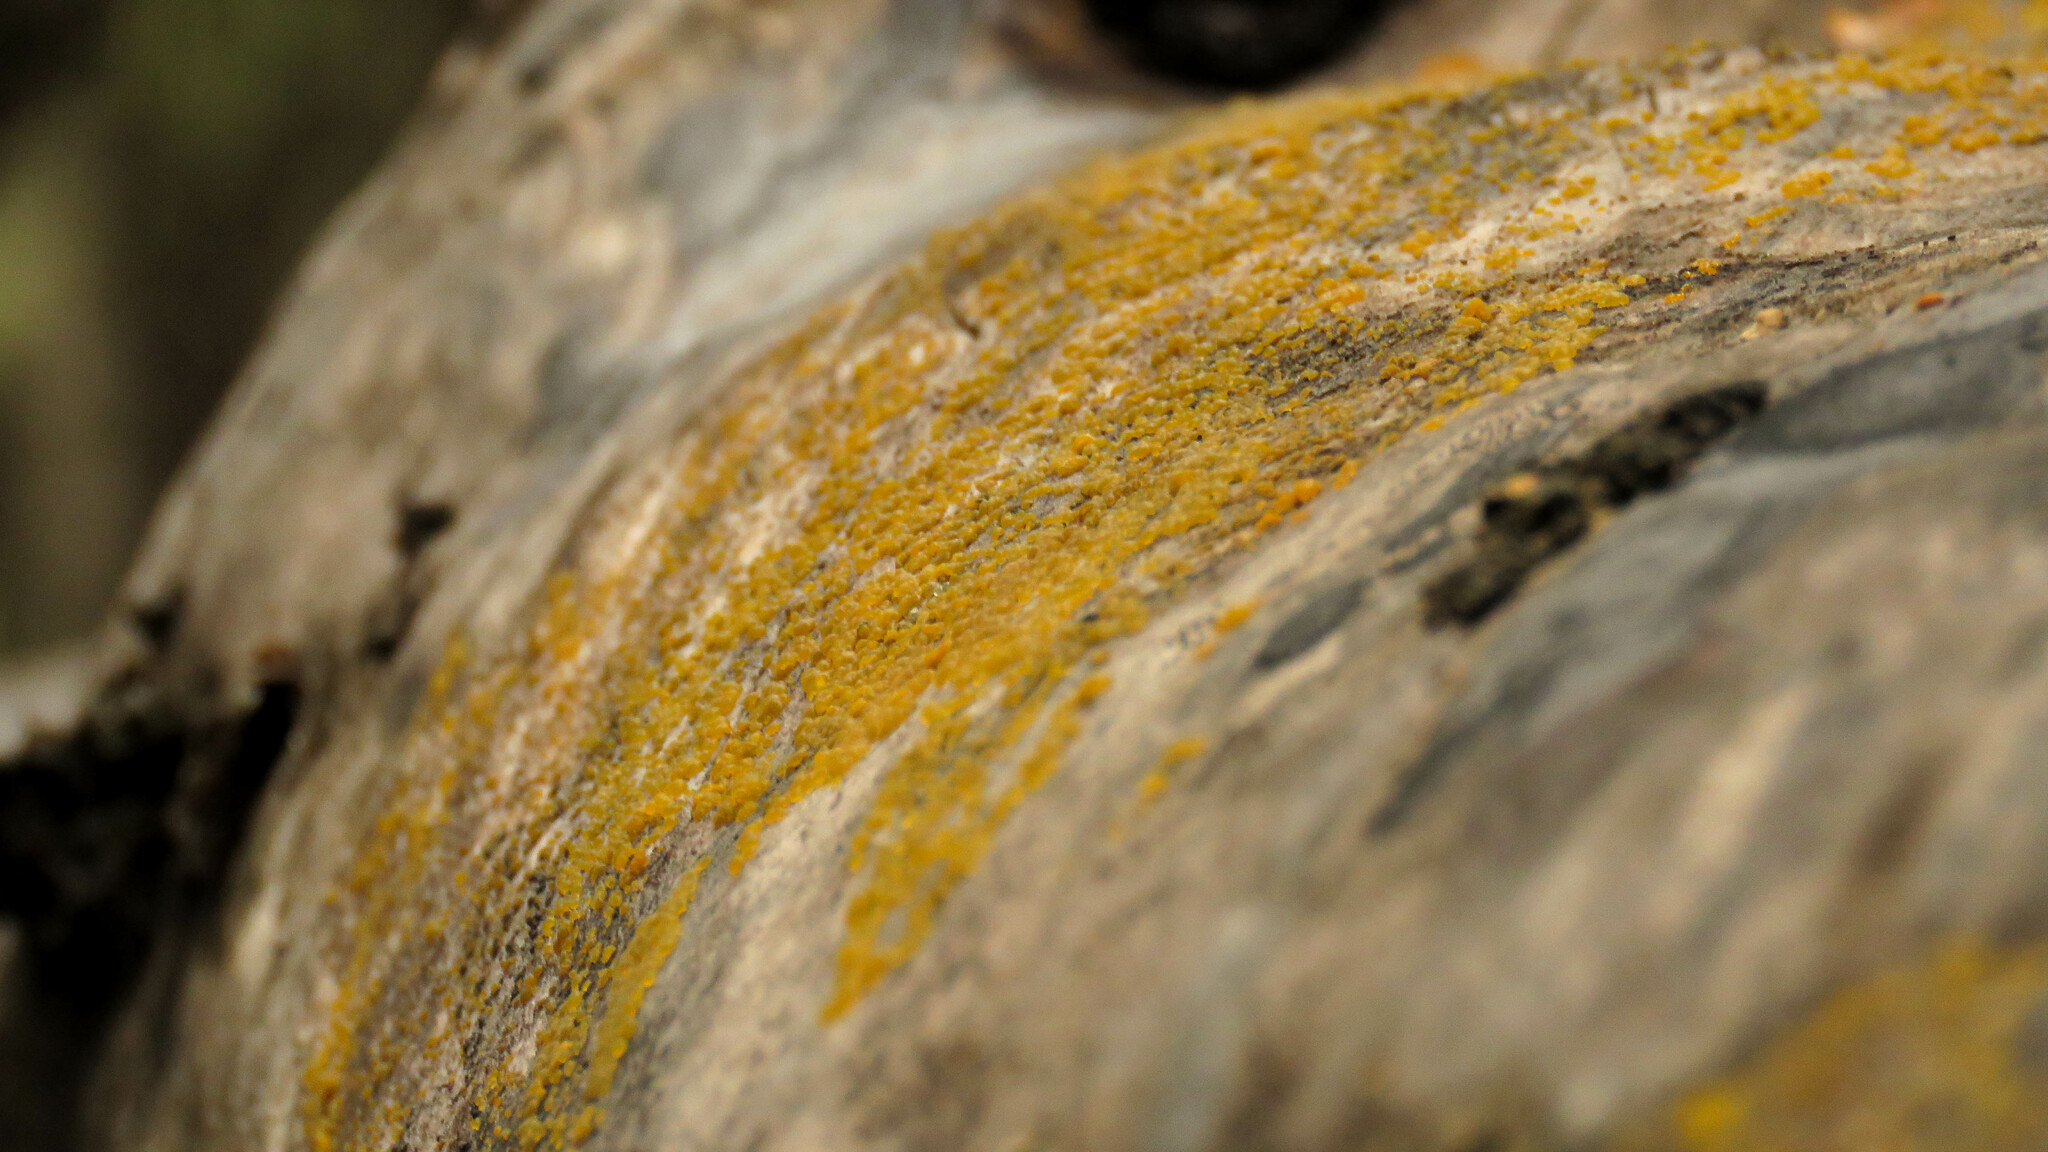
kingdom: Fungi
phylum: Ascomycota
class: Leotiomycetes
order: Helotiales
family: Pezizellaceae
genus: Calycina
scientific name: Calycina citrina
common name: Yellow fairy cups
